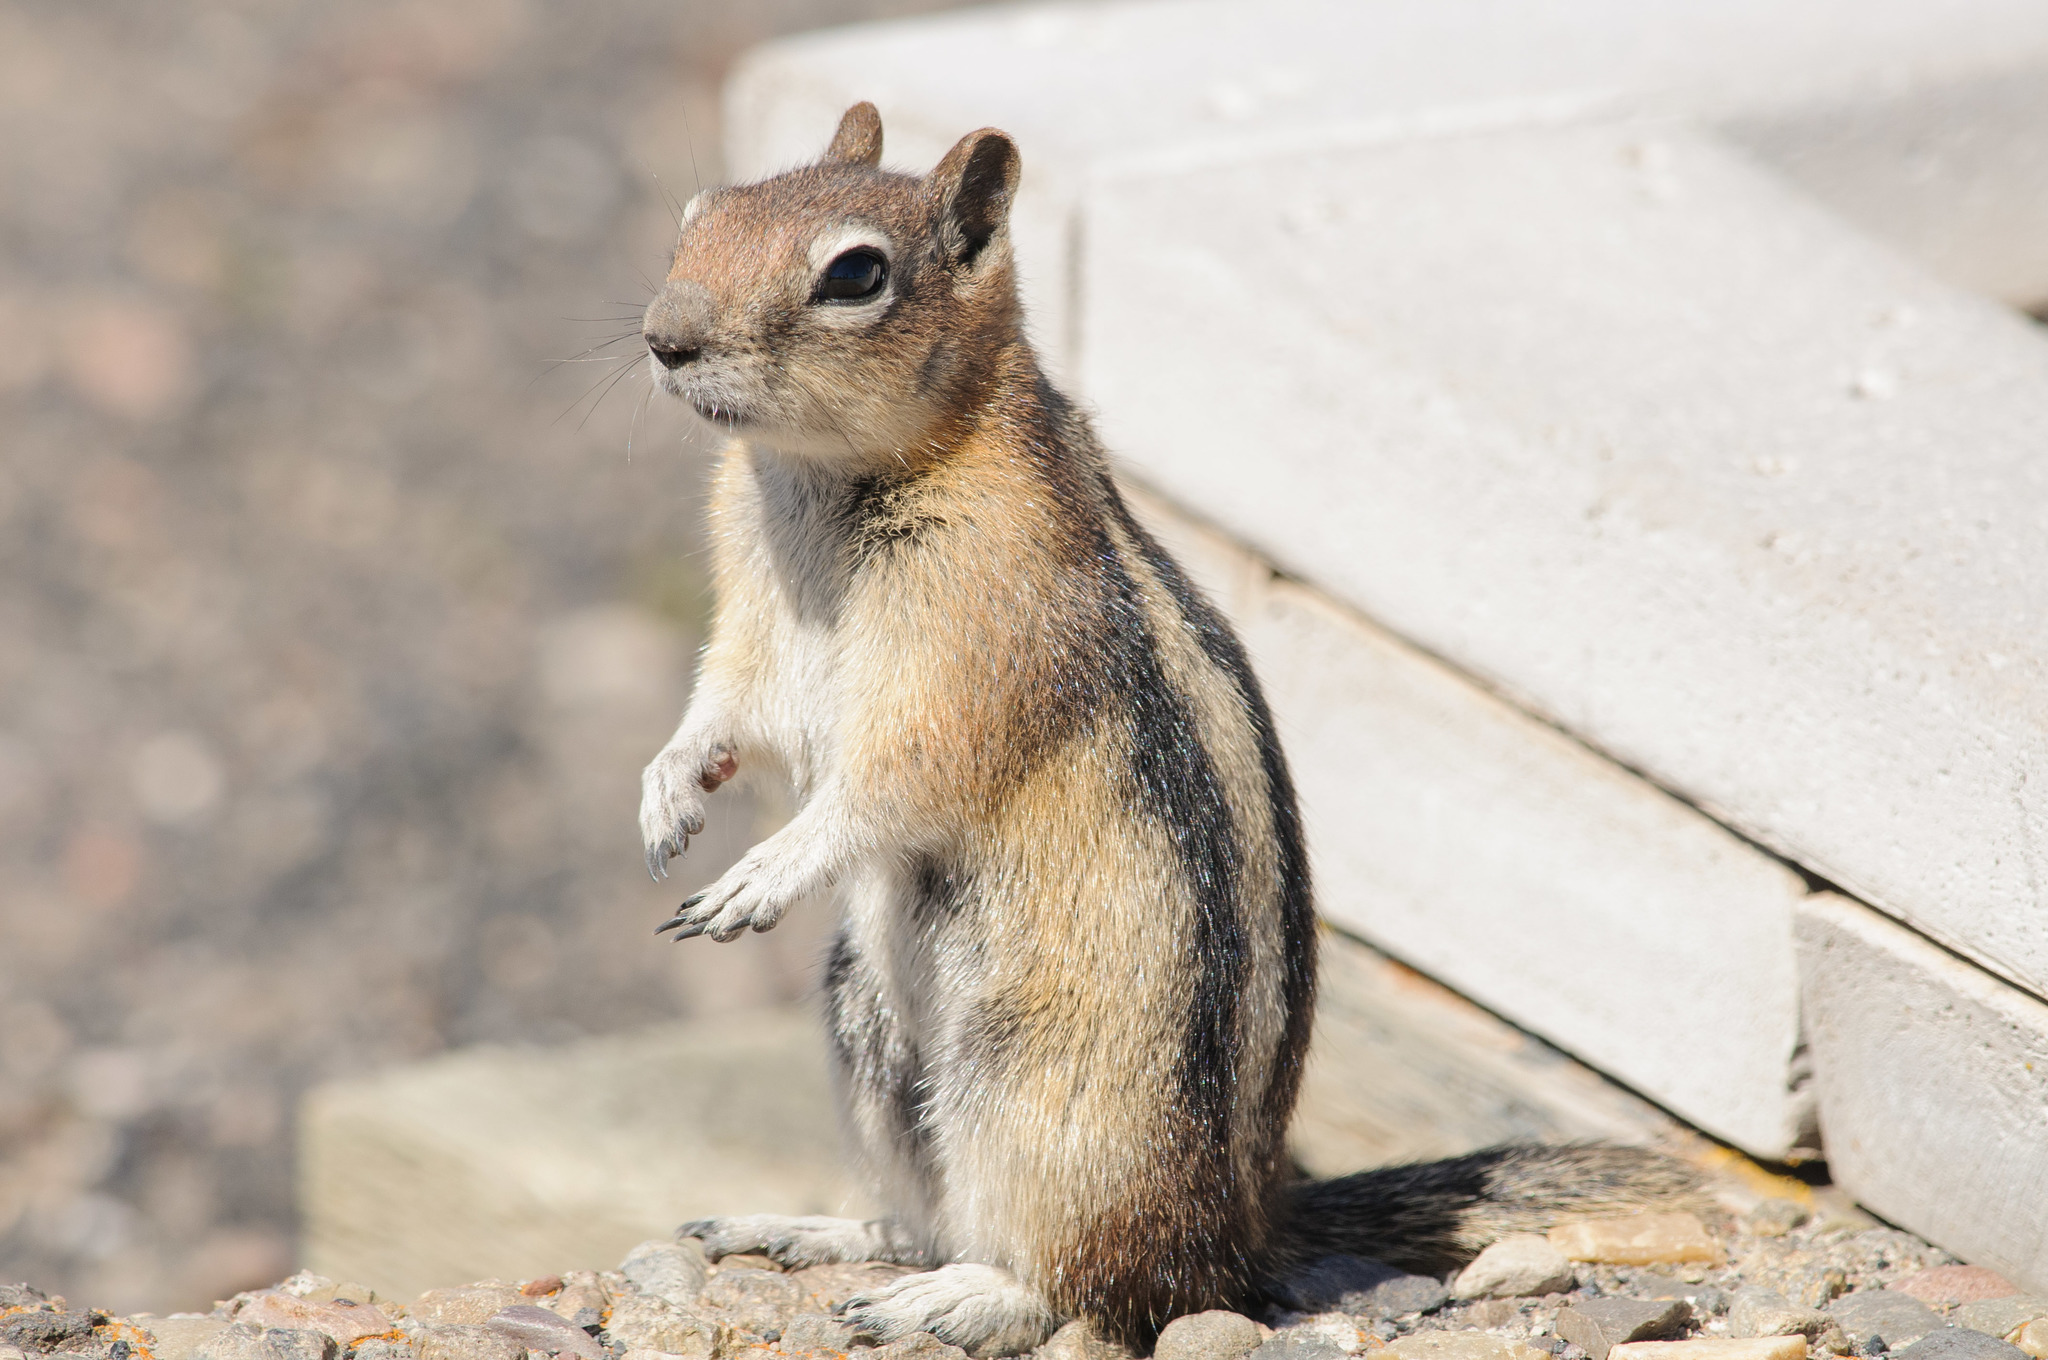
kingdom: Animalia
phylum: Chordata
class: Mammalia
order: Rodentia
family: Sciuridae
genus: Callospermophilus
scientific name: Callospermophilus lateralis
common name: Golden-mantled ground squirrel
